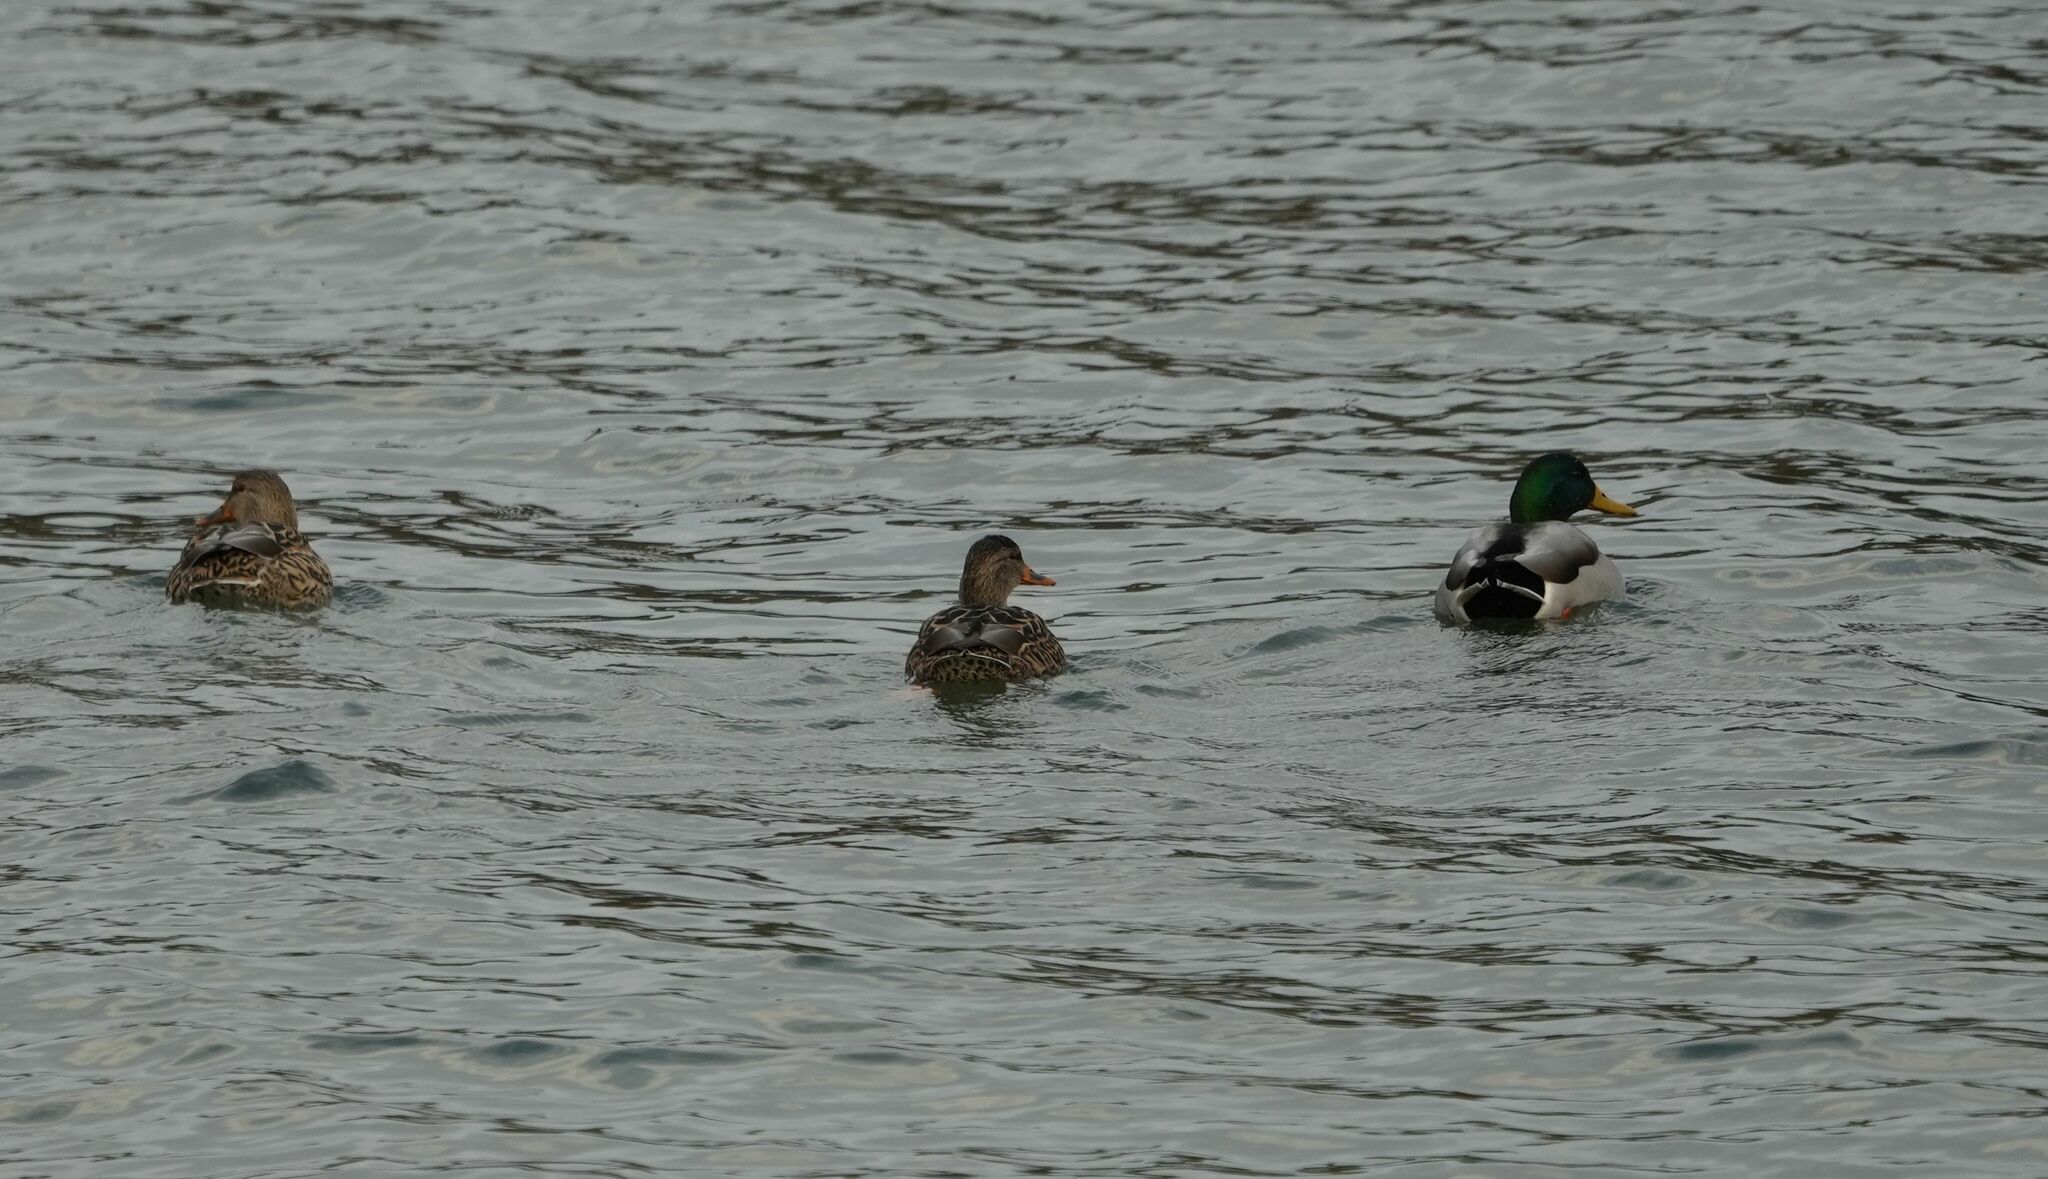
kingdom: Animalia
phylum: Chordata
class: Aves
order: Anseriformes
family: Anatidae
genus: Anas
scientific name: Anas platyrhynchos
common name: Mallard
